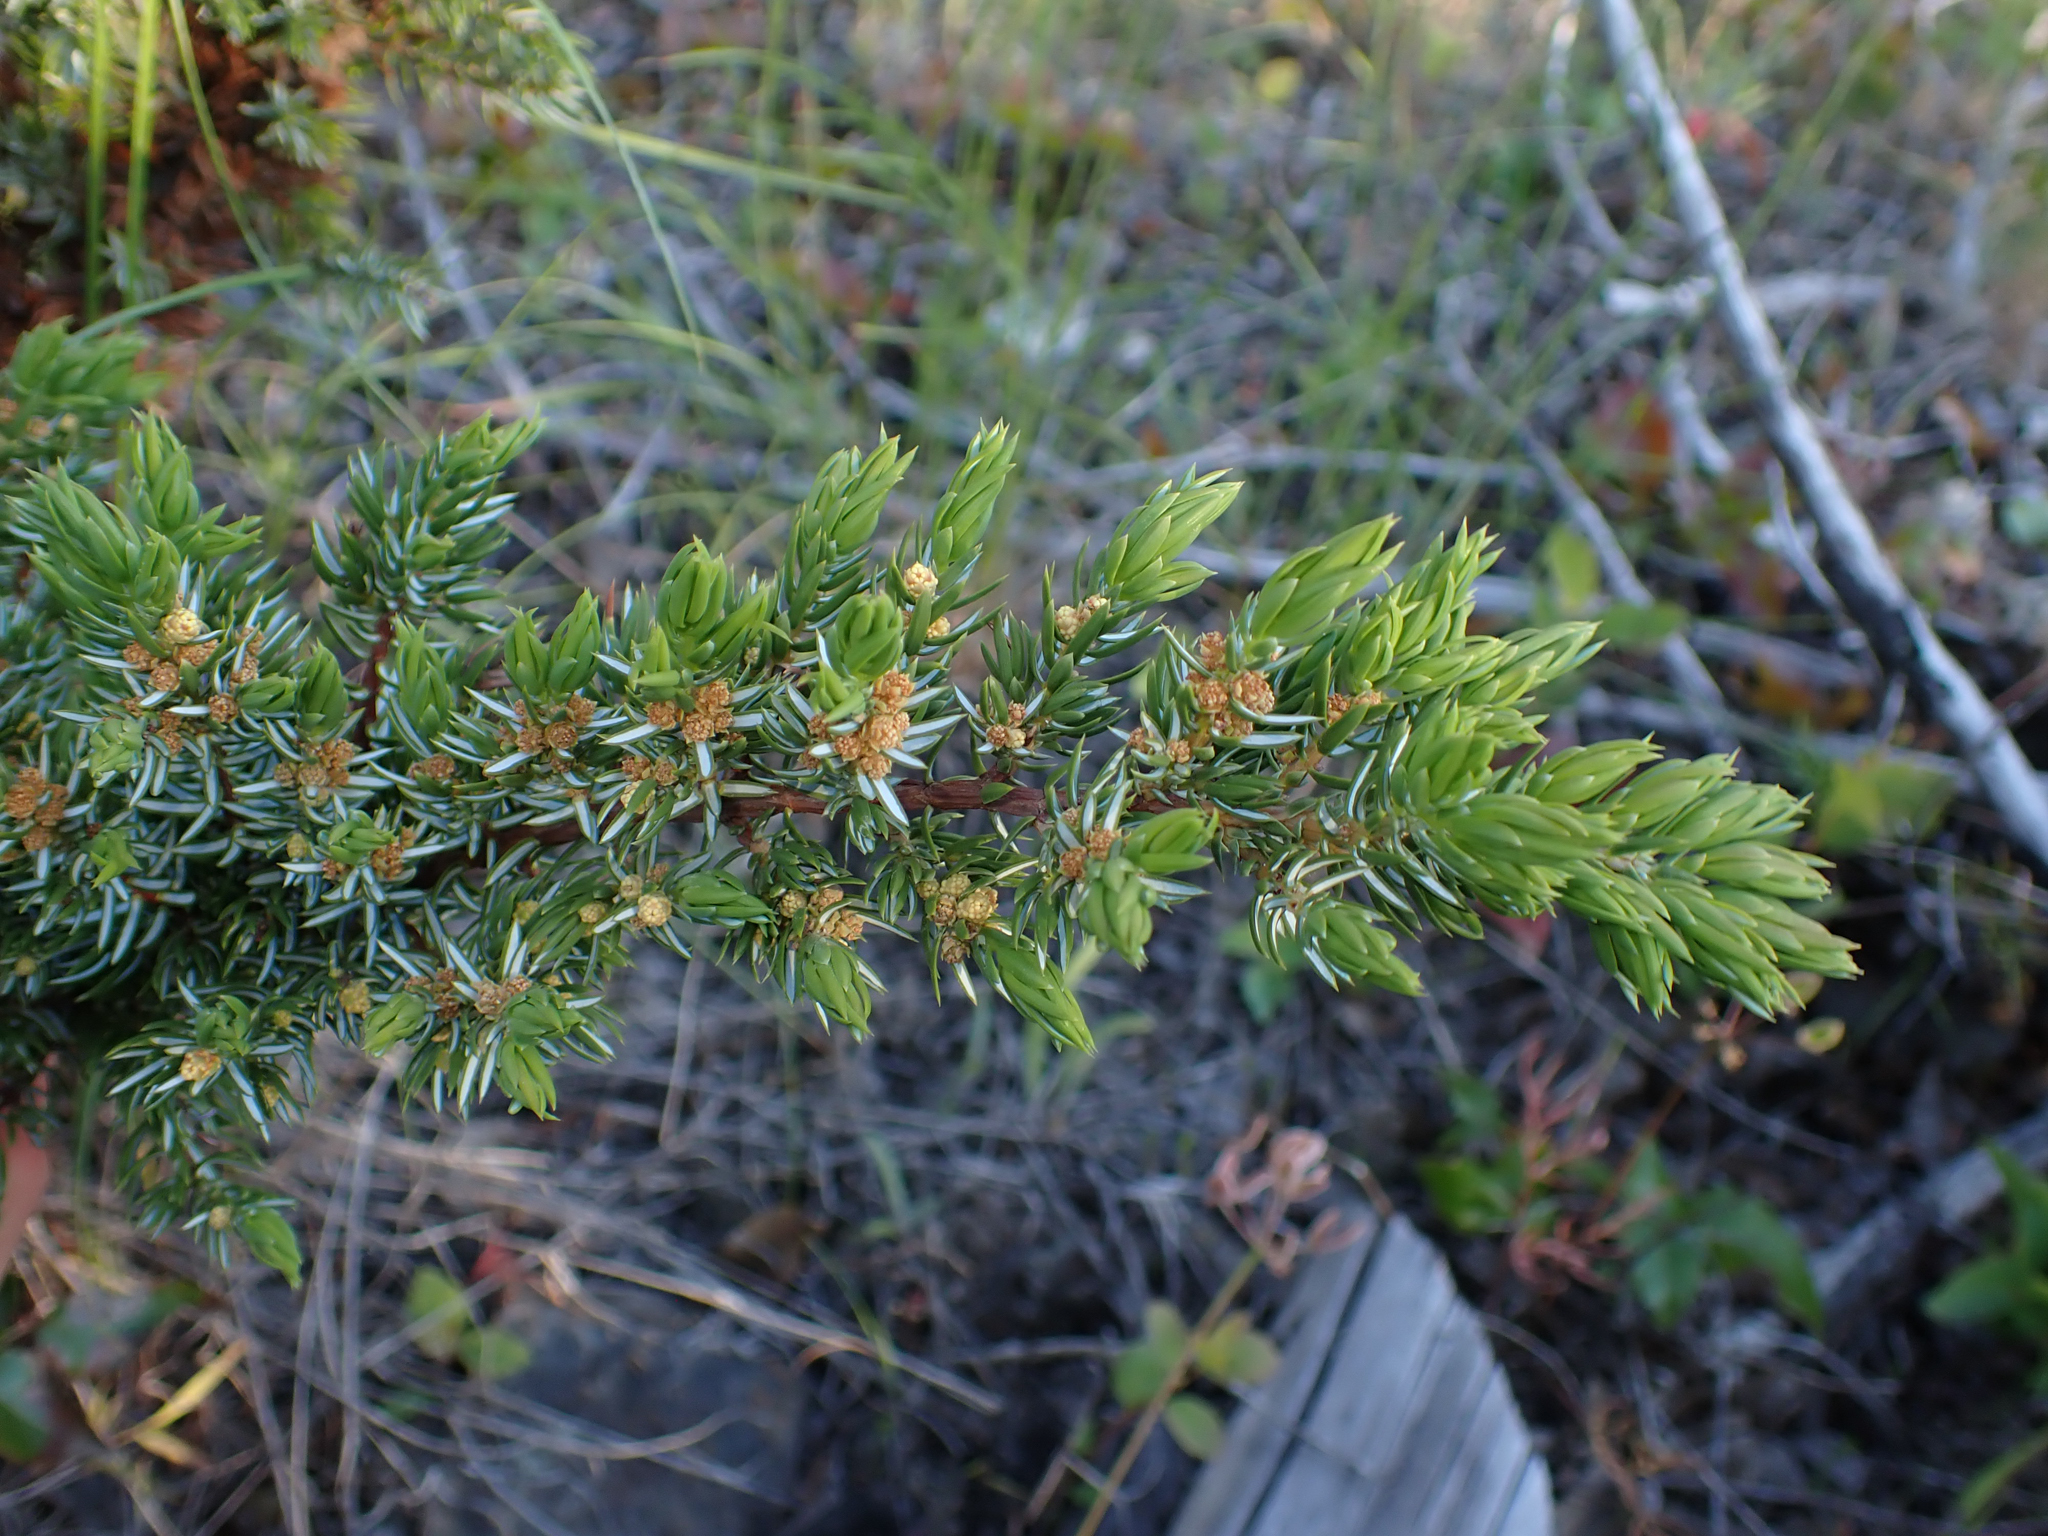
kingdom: Plantae
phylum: Tracheophyta
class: Pinopsida
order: Pinales
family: Cupressaceae
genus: Juniperus
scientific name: Juniperus communis
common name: Common juniper
